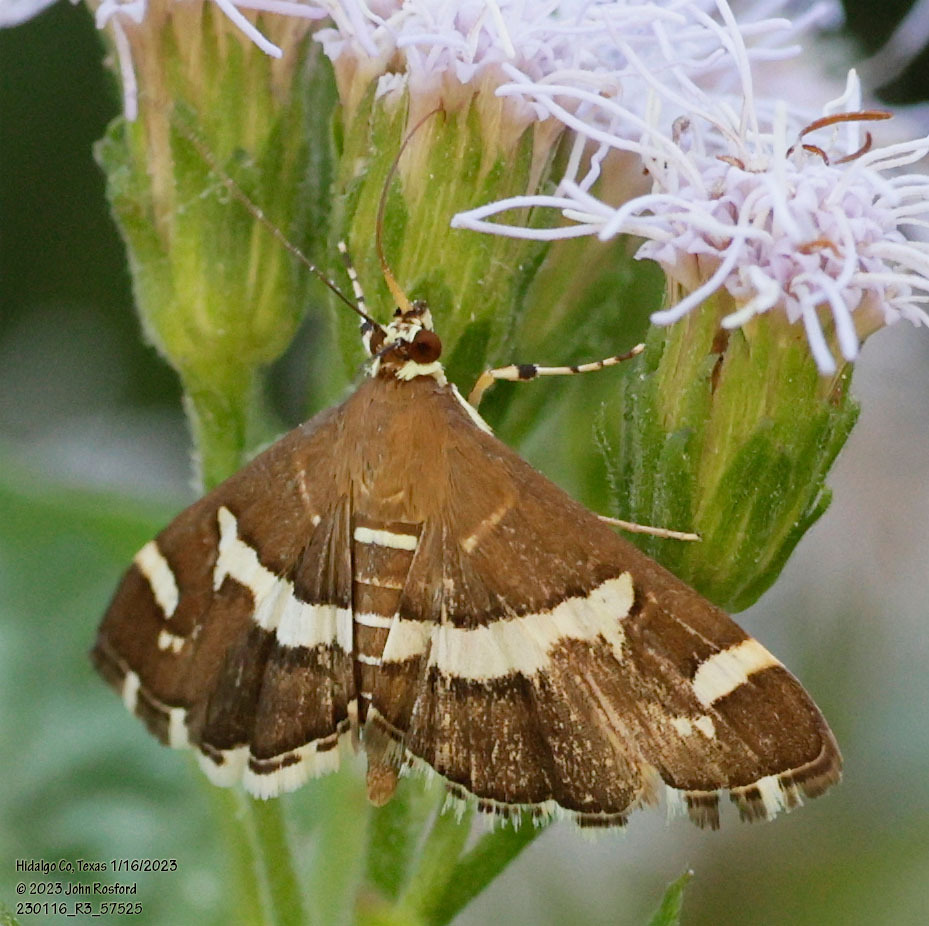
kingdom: Animalia
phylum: Arthropoda
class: Insecta
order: Lepidoptera
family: Crambidae
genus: Spoladea
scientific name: Spoladea recurvalis
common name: Beet webworm moth
